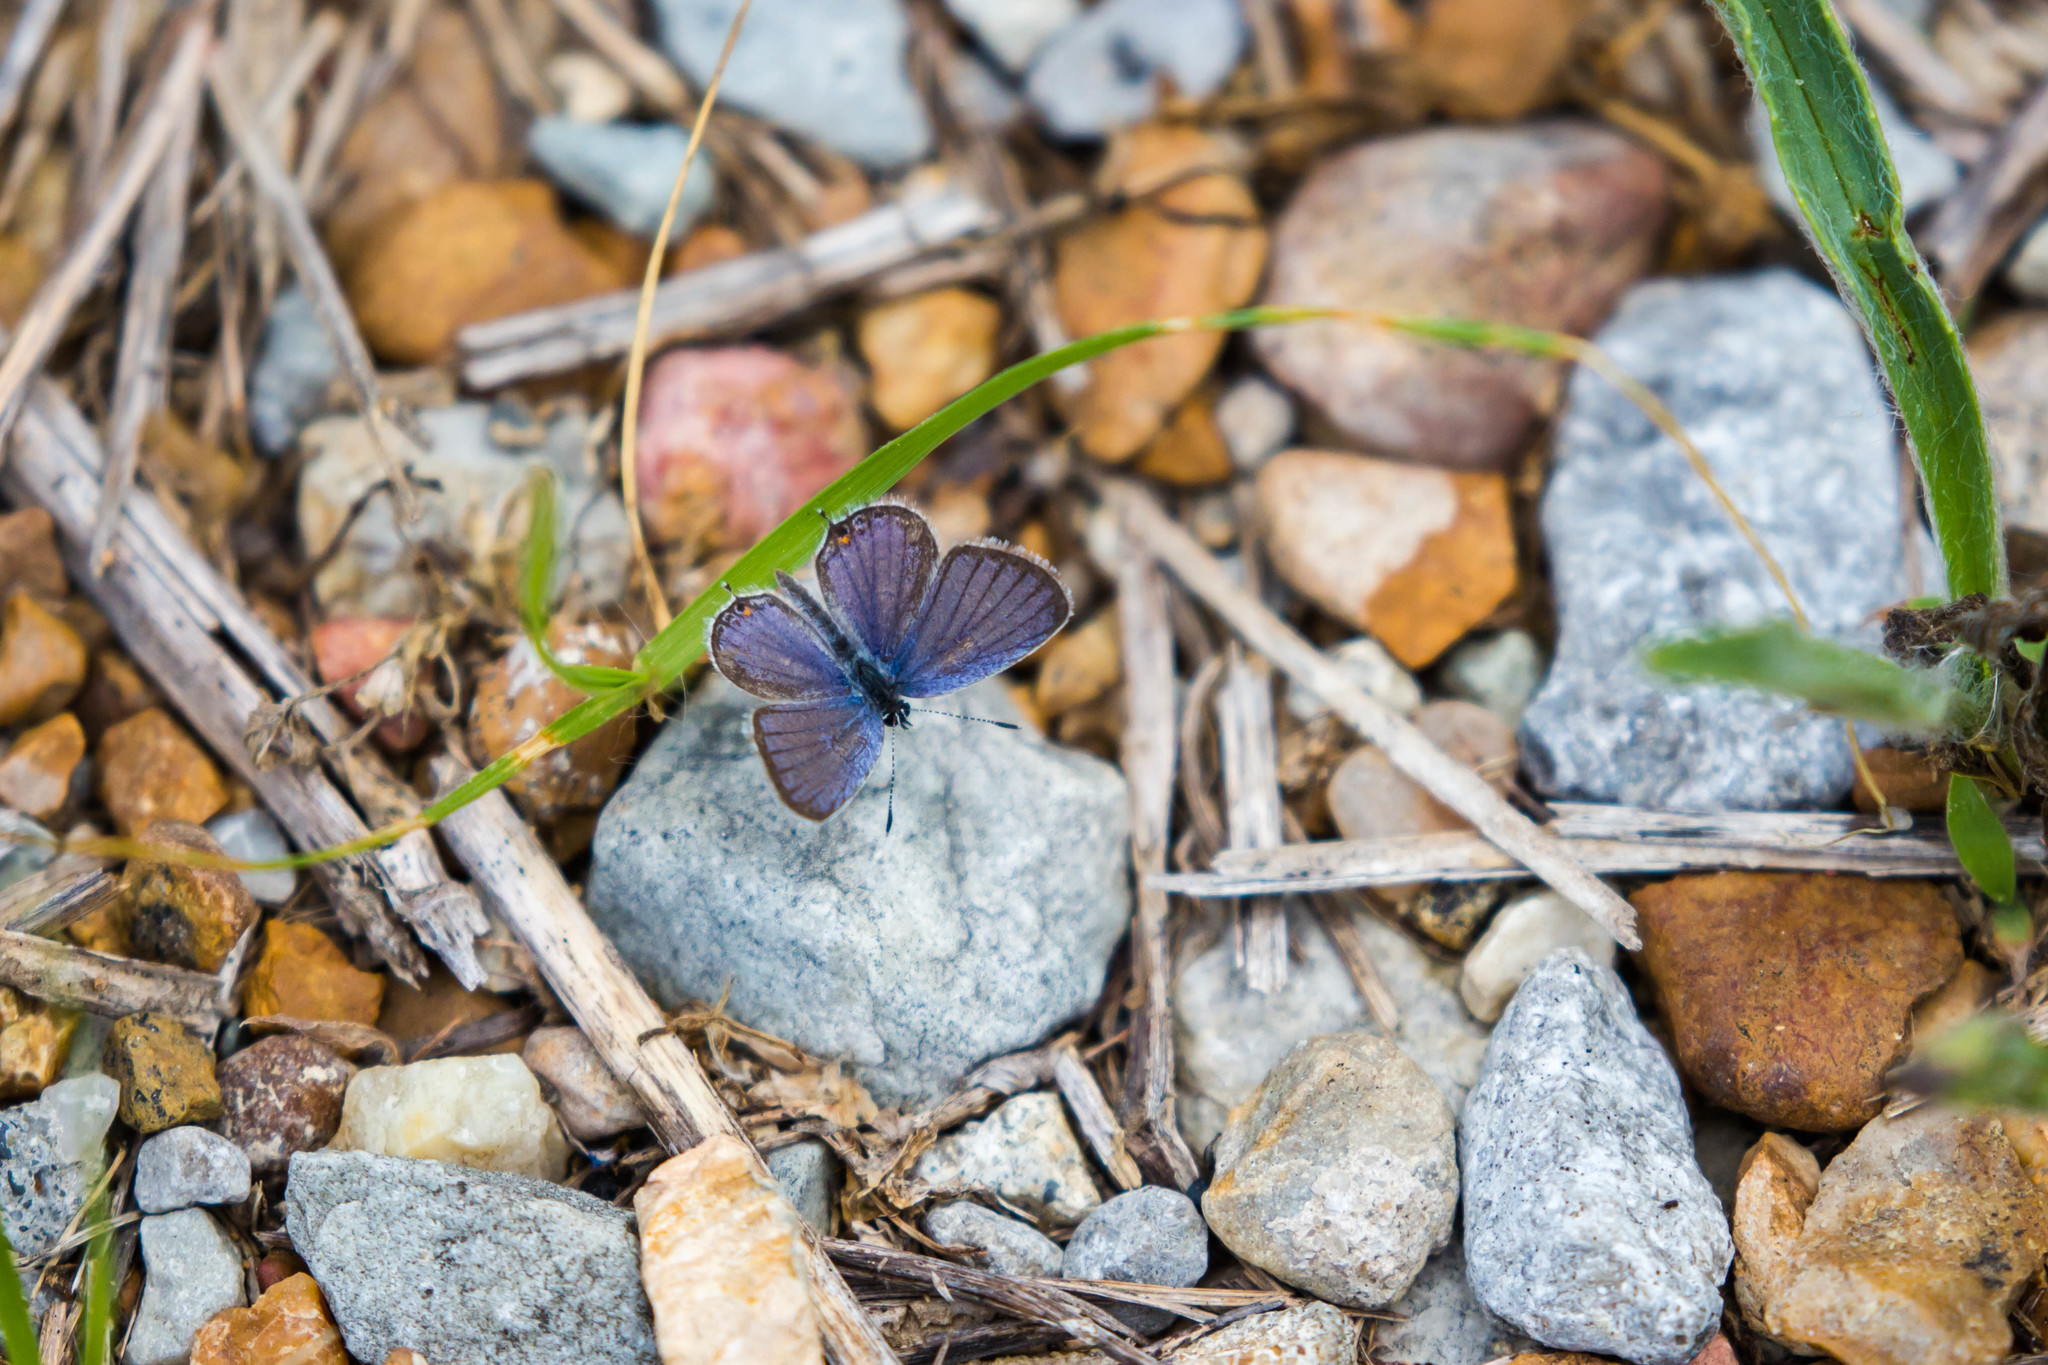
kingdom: Animalia
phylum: Arthropoda
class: Insecta
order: Lepidoptera
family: Lycaenidae
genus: Elkalyce
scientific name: Elkalyce comyntas
